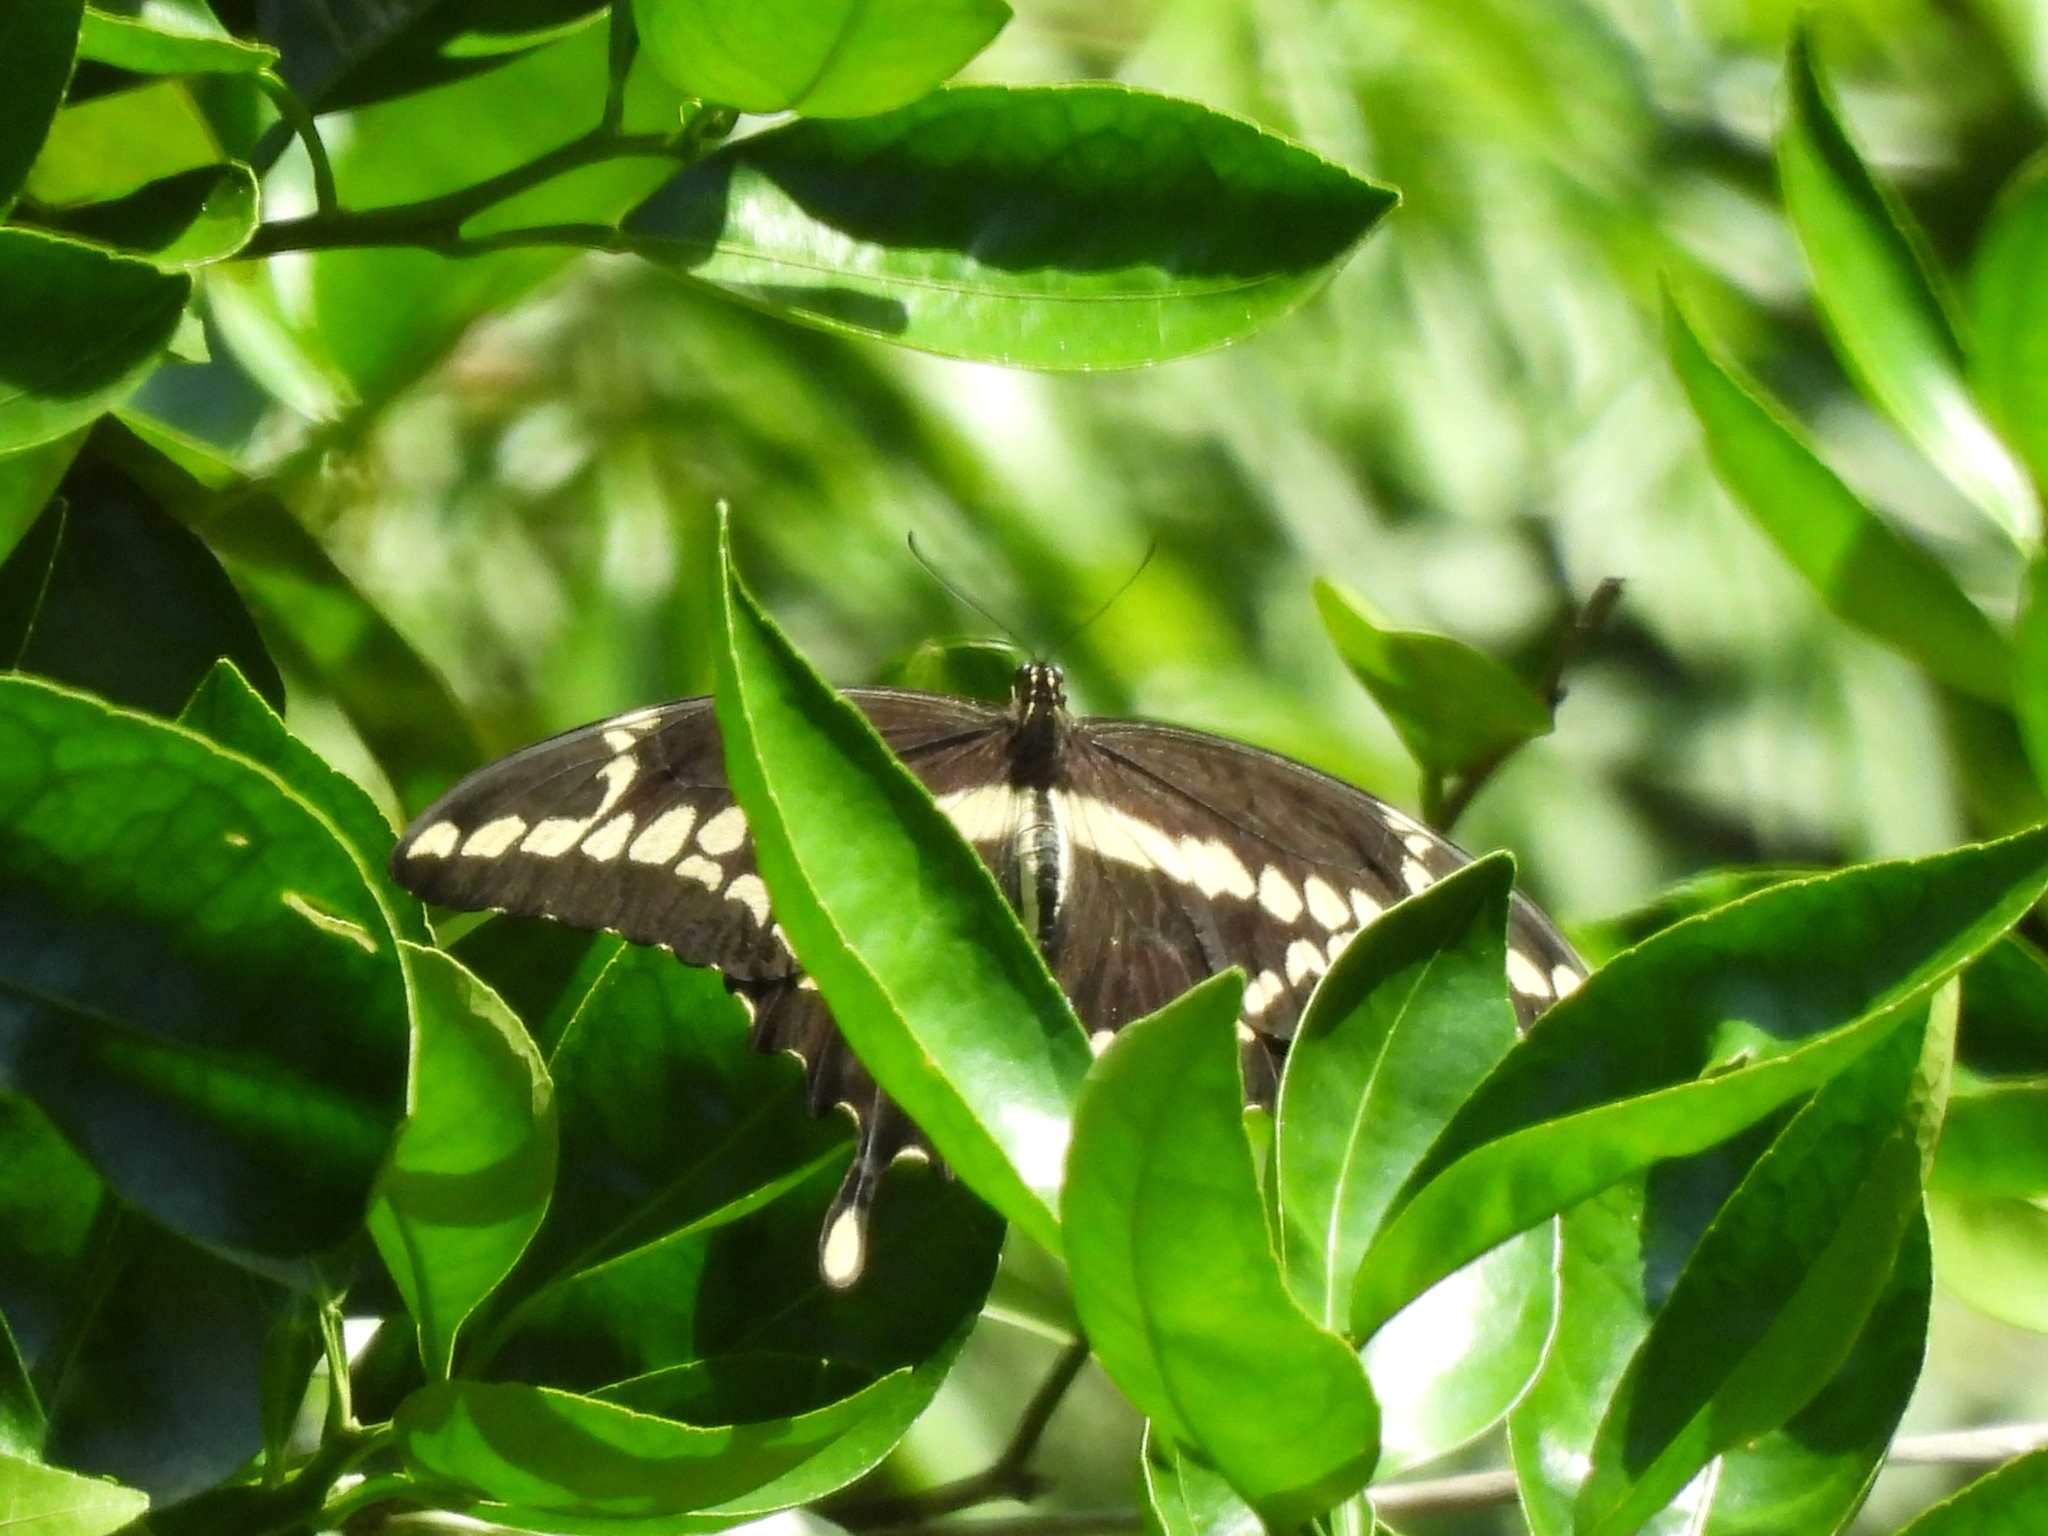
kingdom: Animalia
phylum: Arthropoda
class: Insecta
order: Lepidoptera
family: Papilionidae
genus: Papilio
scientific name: Papilio cresphontes
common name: Giant swallowtail
